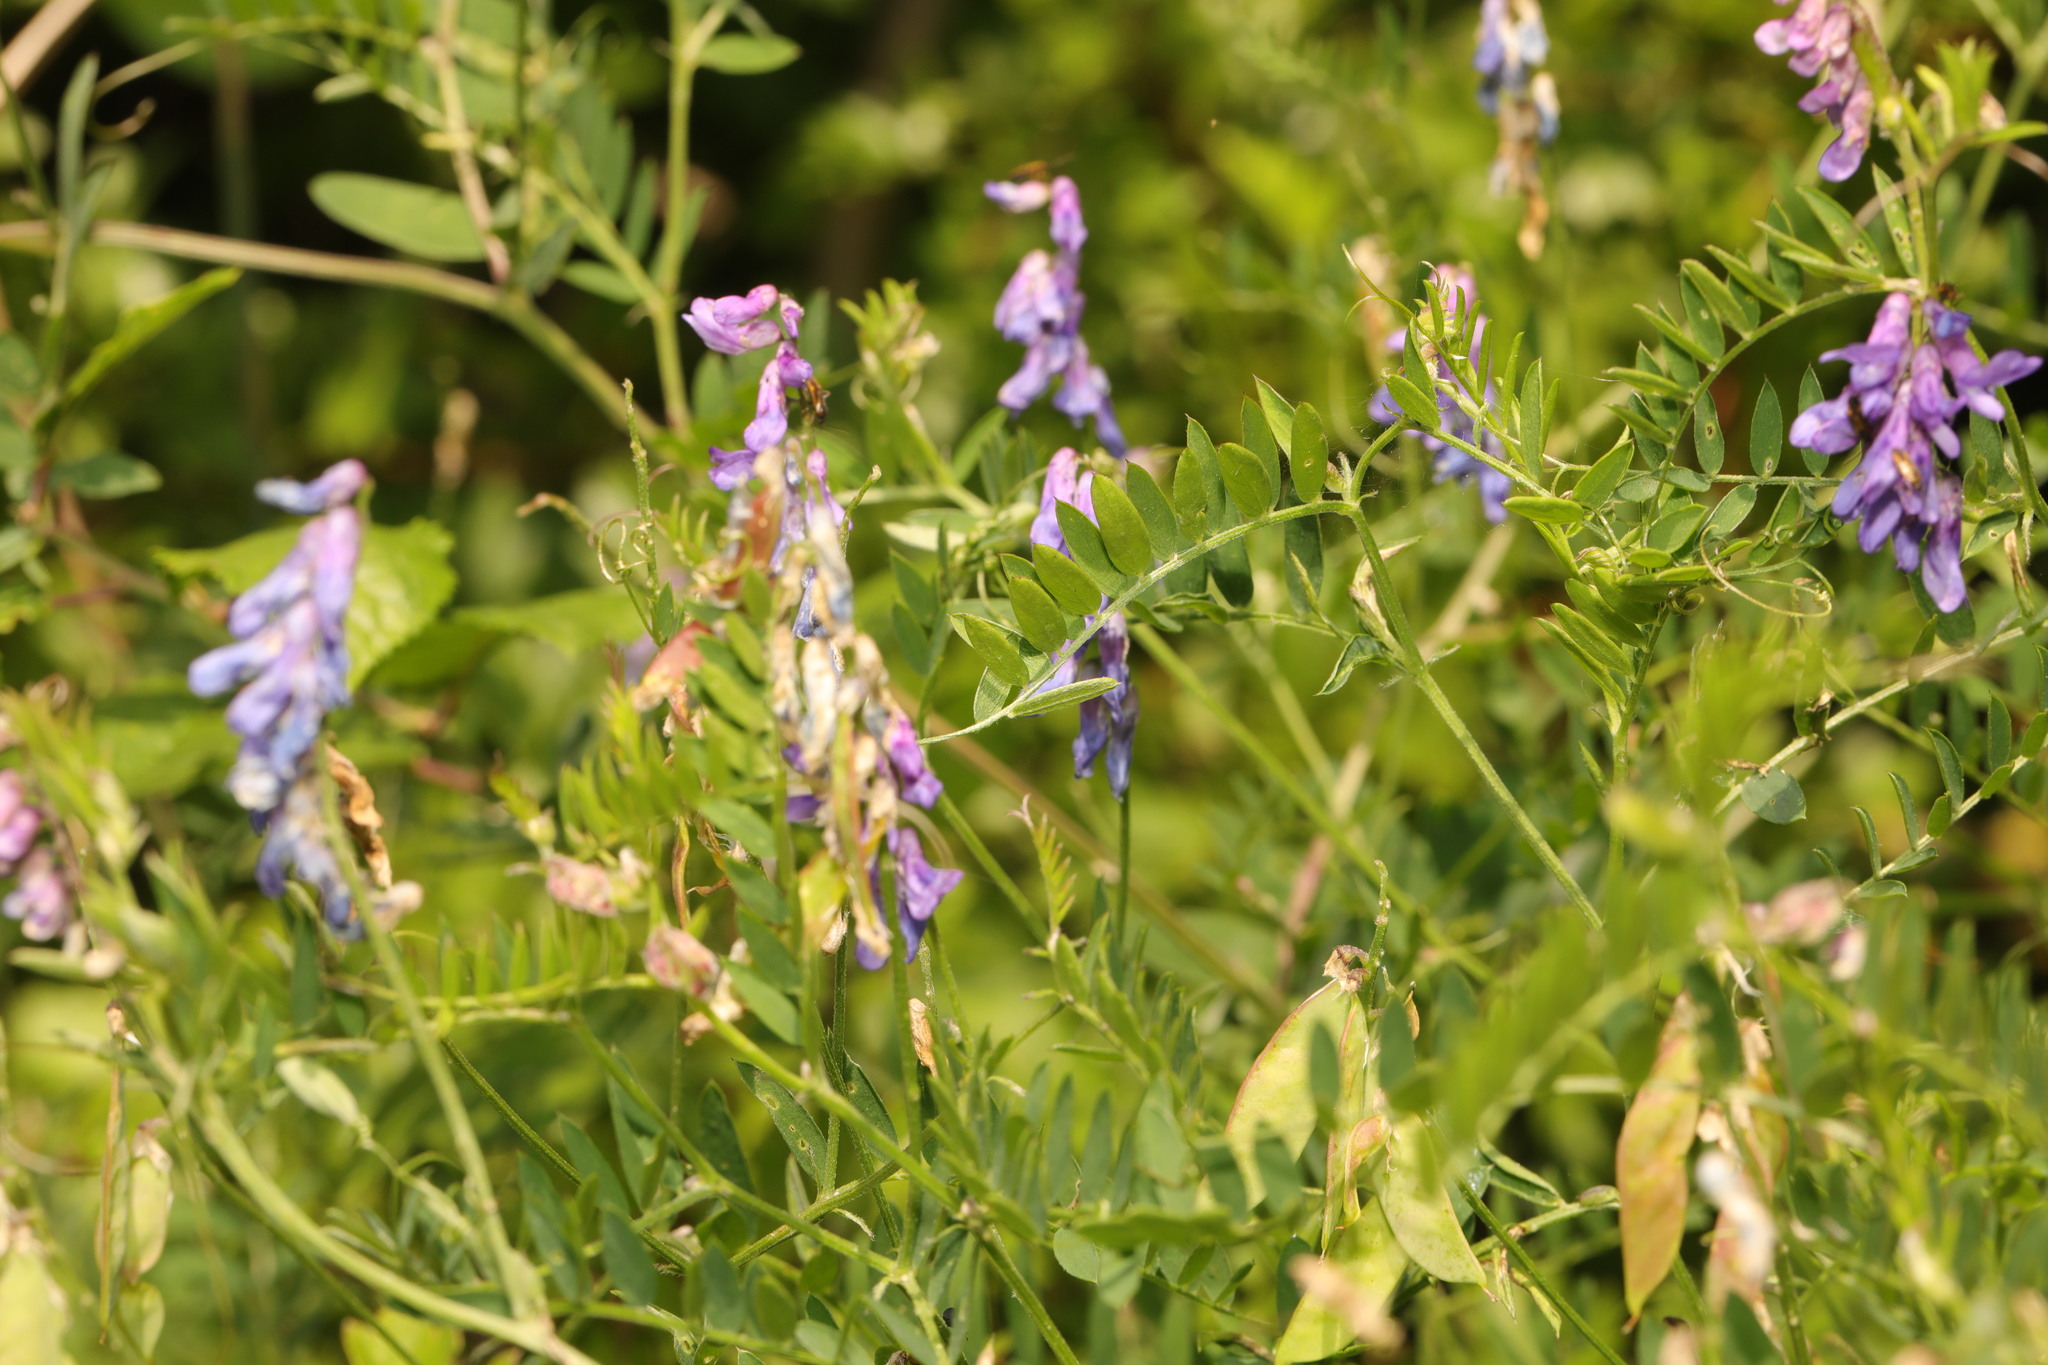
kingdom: Plantae
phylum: Tracheophyta
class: Magnoliopsida
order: Fabales
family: Fabaceae
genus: Vicia
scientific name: Vicia cracca
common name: Bird vetch
